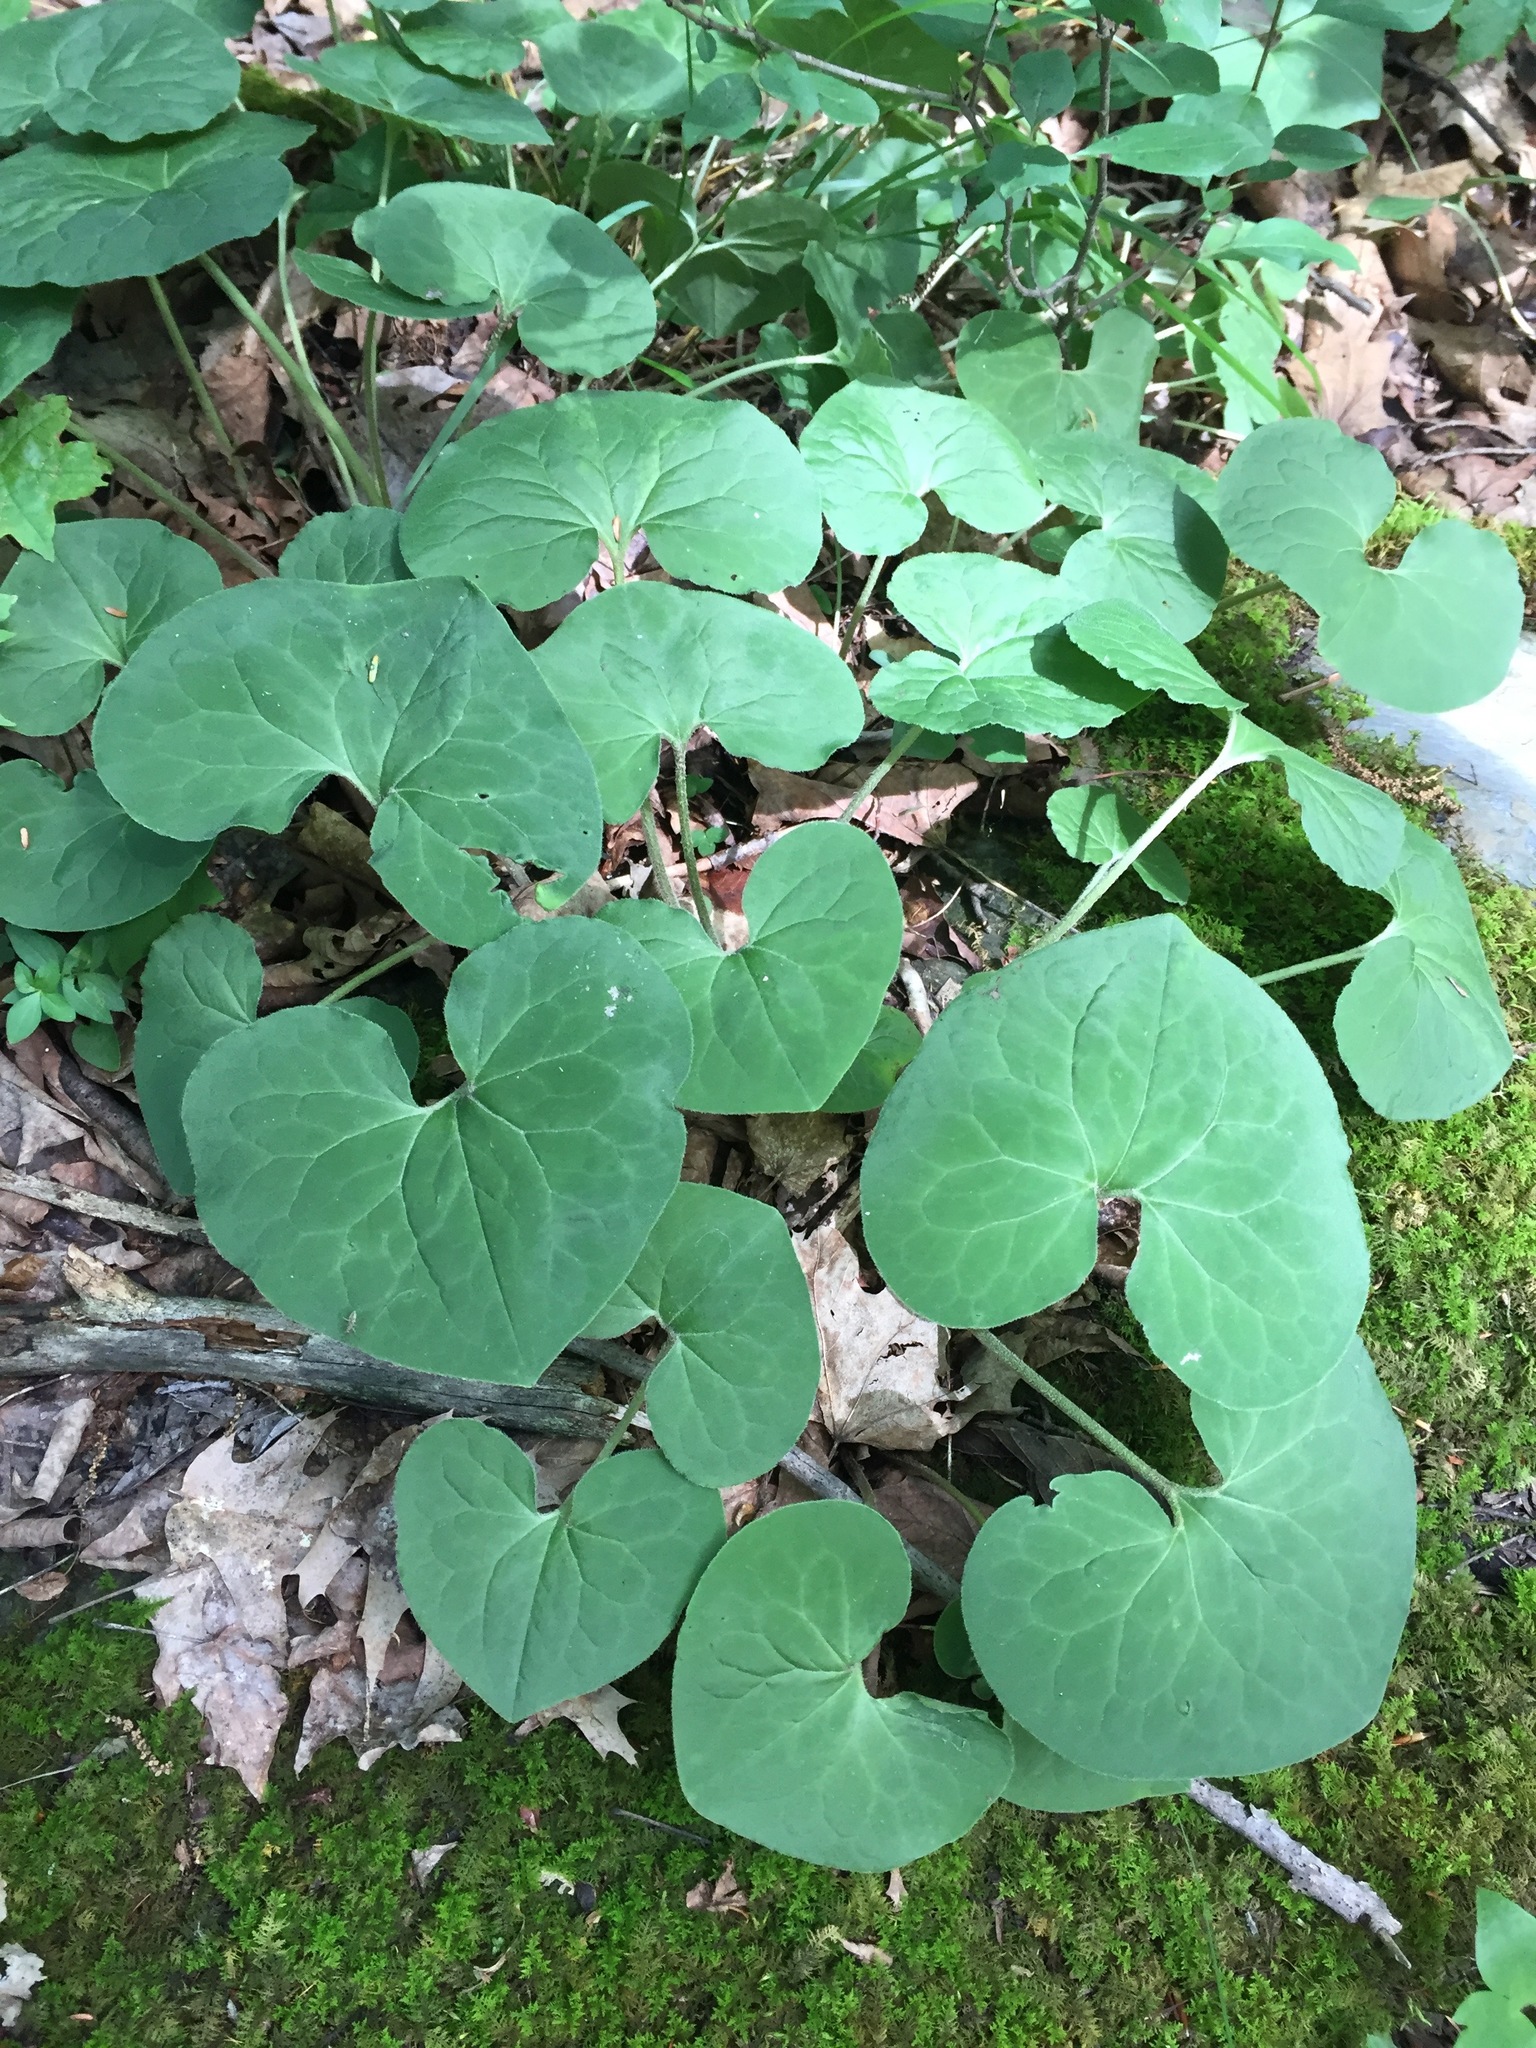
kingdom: Plantae
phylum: Tracheophyta
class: Magnoliopsida
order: Piperales
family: Aristolochiaceae
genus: Asarum
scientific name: Asarum canadense
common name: Wild ginger
